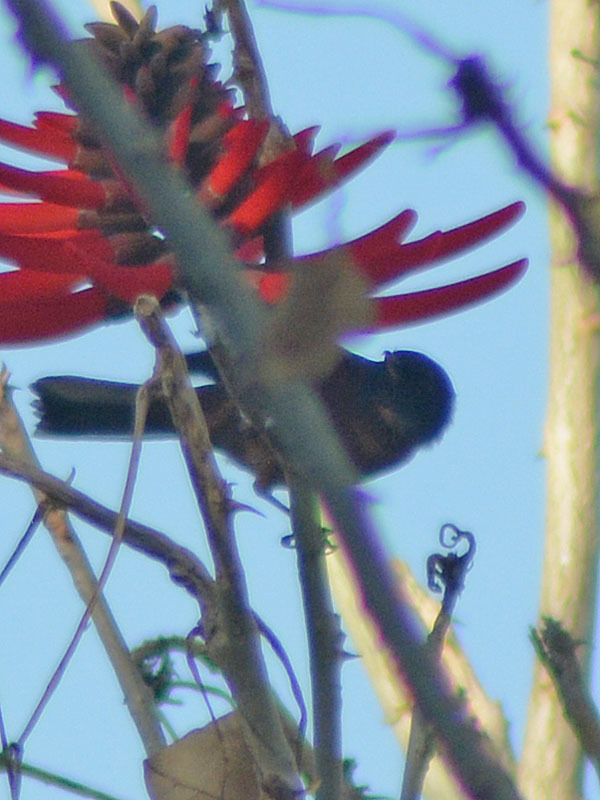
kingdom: Animalia
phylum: Chordata
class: Aves
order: Passeriformes
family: Thraupidae
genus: Diglossa
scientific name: Diglossa baritula
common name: Cinnamon-bellied flowerpiercer
